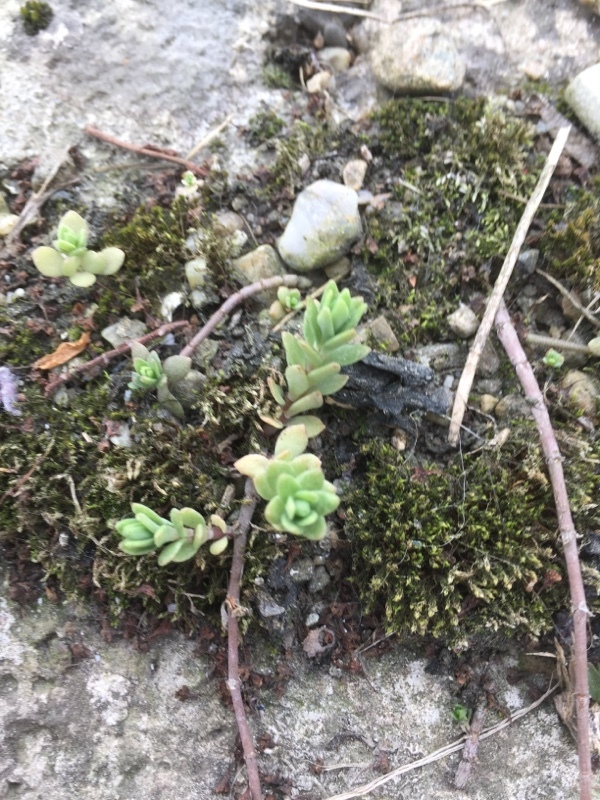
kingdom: Plantae
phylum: Tracheophyta
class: Magnoliopsida
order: Saxifragales
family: Crassulaceae
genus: Sedum
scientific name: Sedum sarmentosum
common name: Stringy stonecrop
